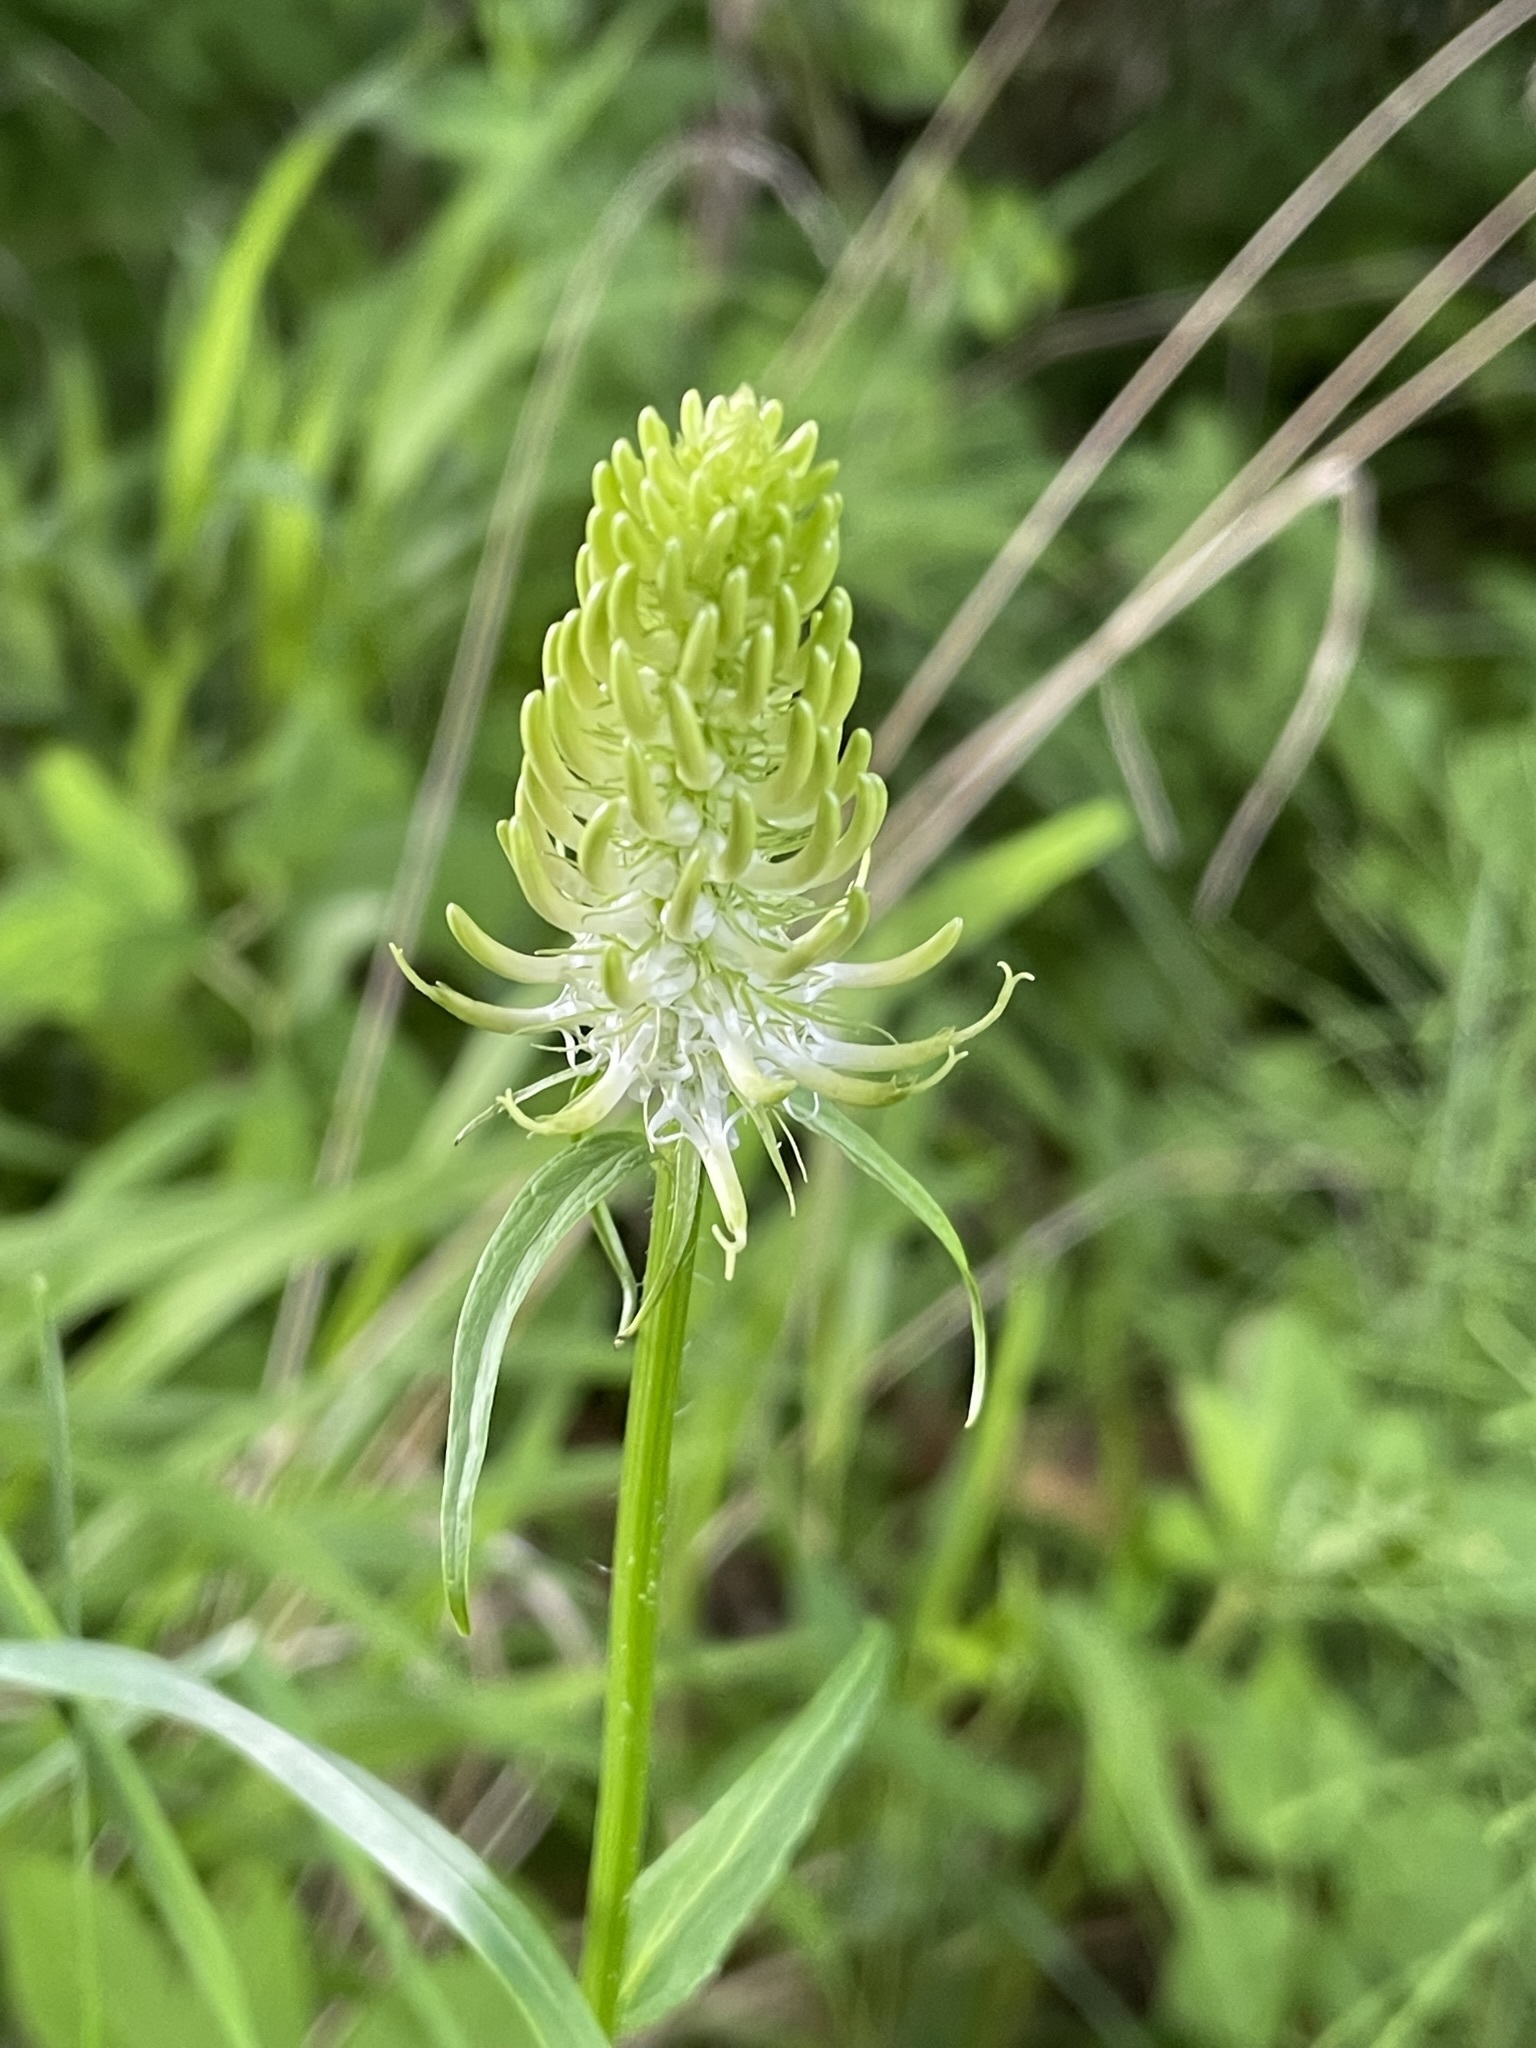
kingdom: Plantae
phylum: Tracheophyta
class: Magnoliopsida
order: Asterales
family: Campanulaceae
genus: Phyteuma
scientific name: Phyteuma spicatum
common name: Spiked rampion
